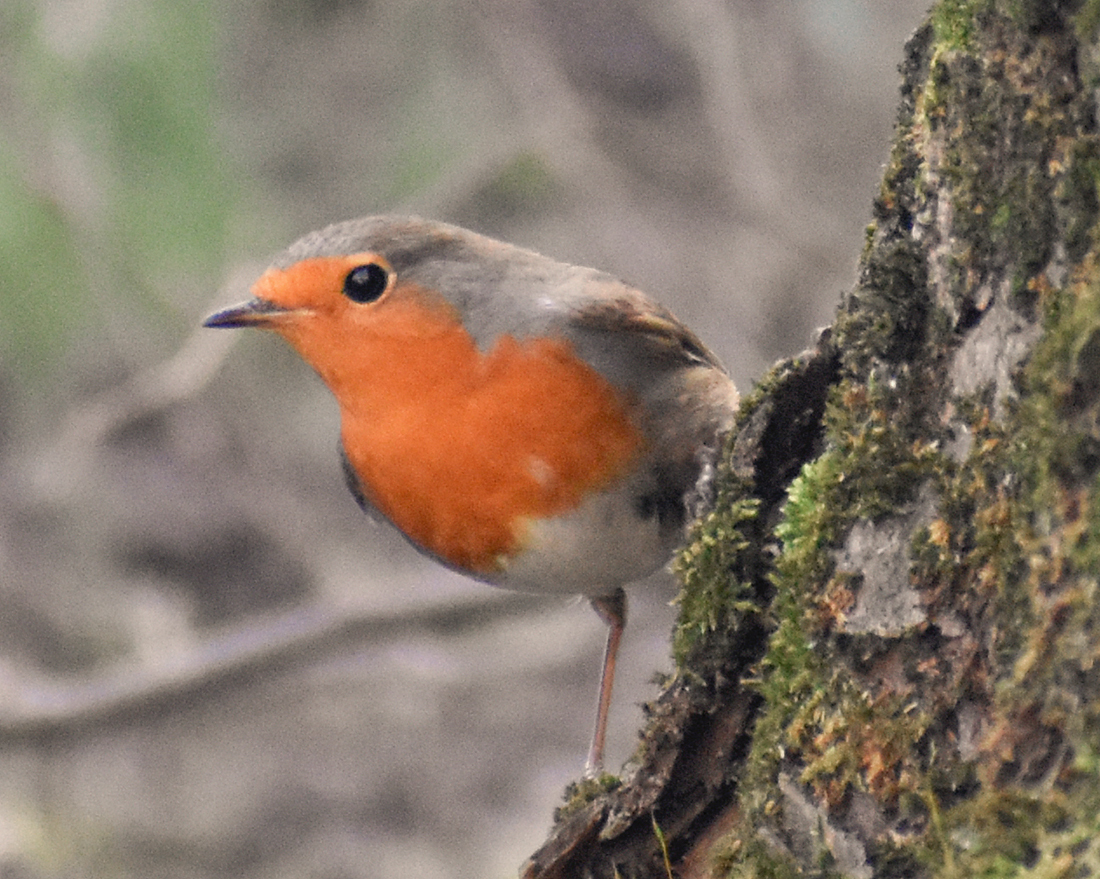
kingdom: Animalia
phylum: Chordata
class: Aves
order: Passeriformes
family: Muscicapidae
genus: Erithacus
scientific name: Erithacus rubecula
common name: European robin
